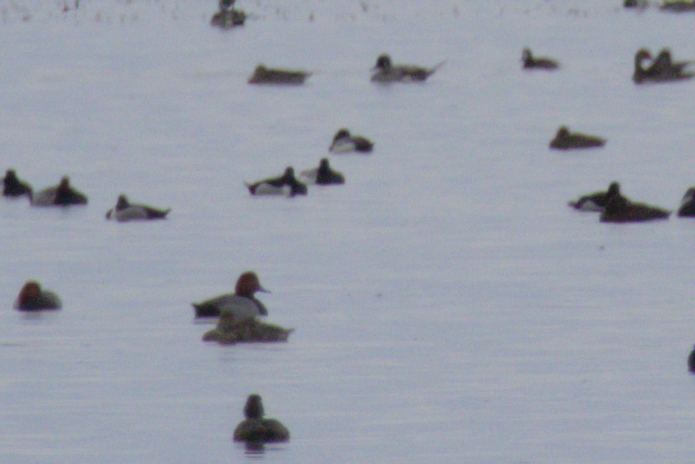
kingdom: Animalia
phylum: Chordata
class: Aves
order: Anseriformes
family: Anatidae
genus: Aythya
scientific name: Aythya americana
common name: Redhead
